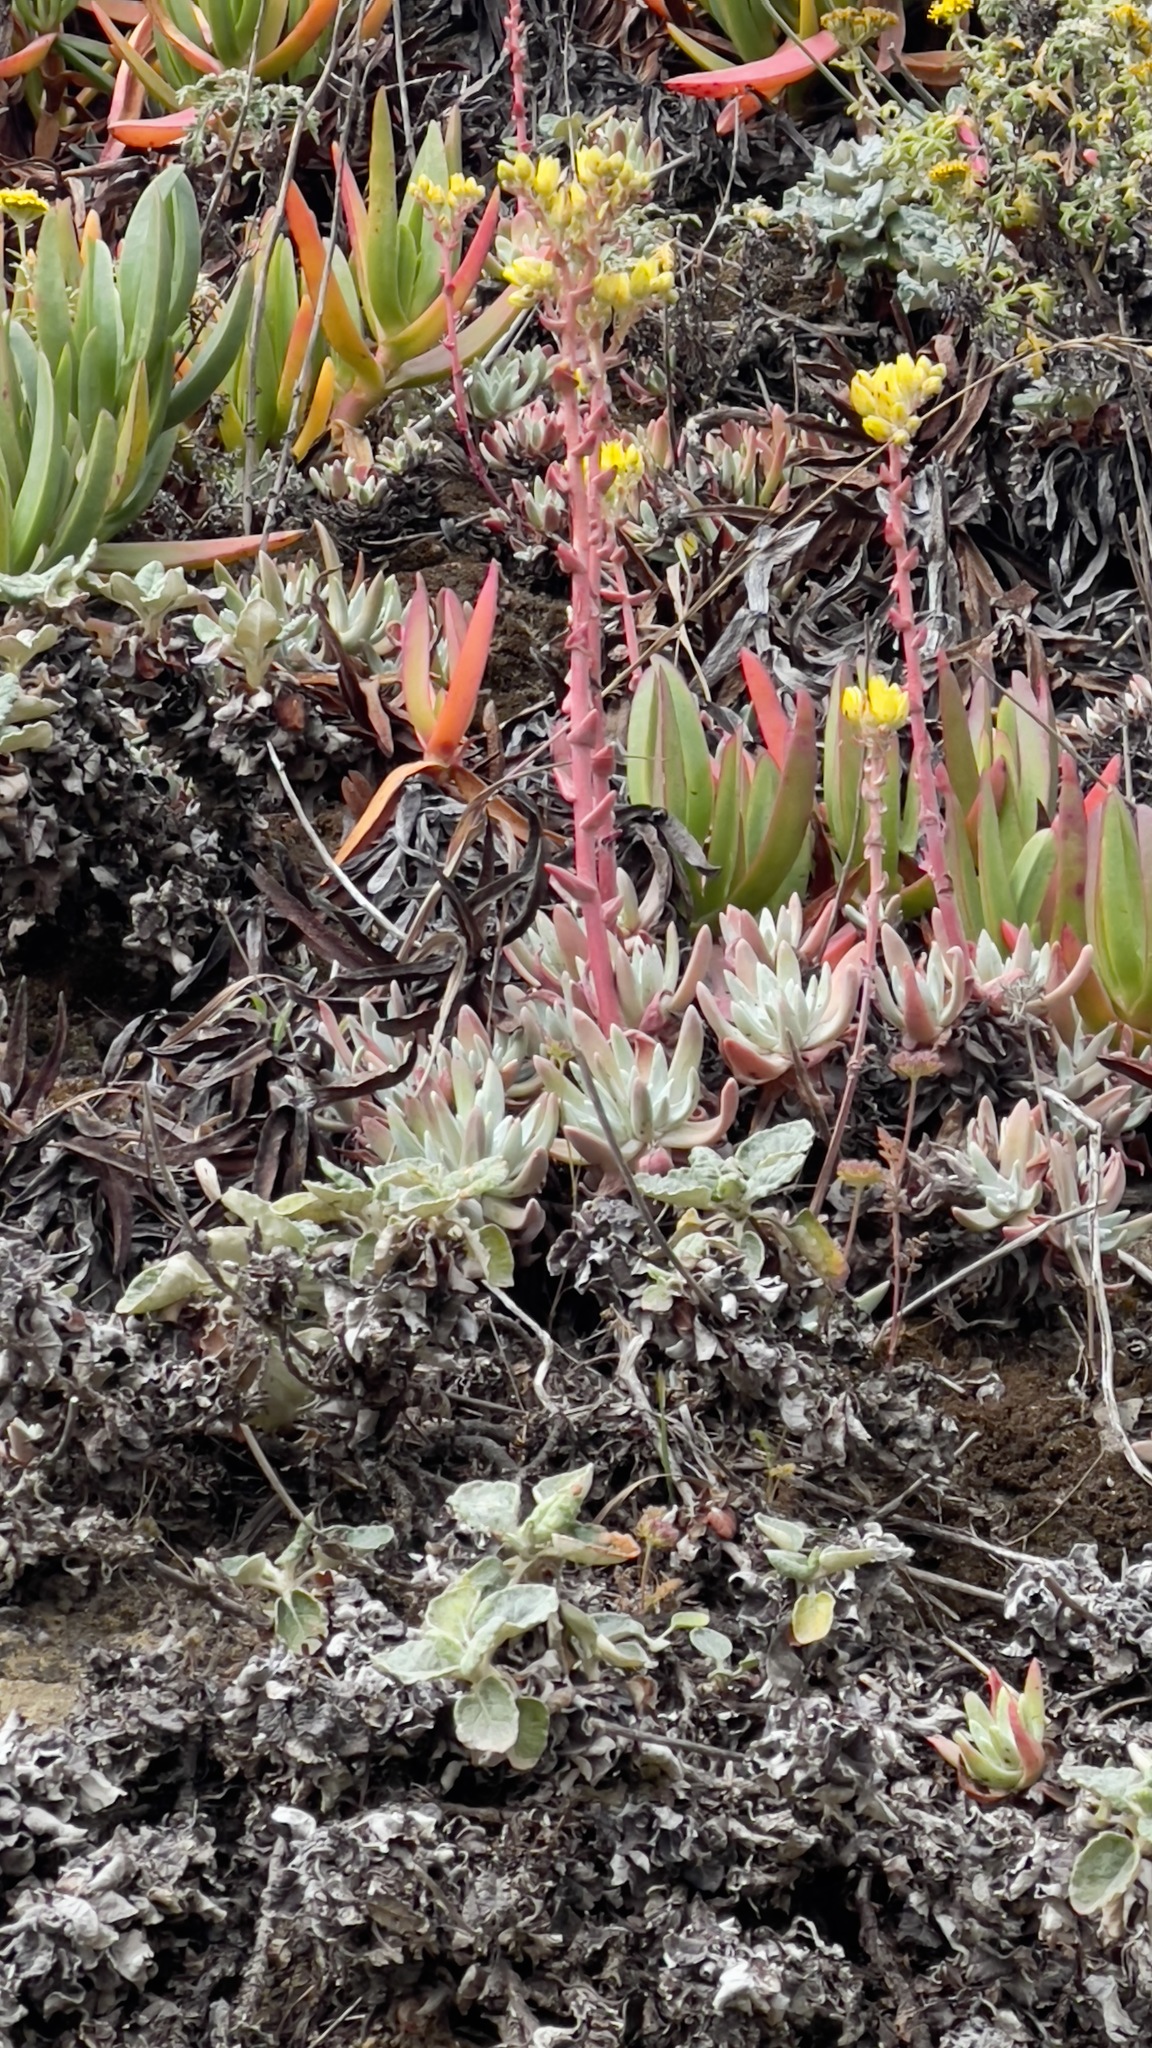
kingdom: Plantae
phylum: Tracheophyta
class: Magnoliopsida
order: Saxifragales
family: Crassulaceae
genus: Dudleya
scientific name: Dudleya caespitosa
